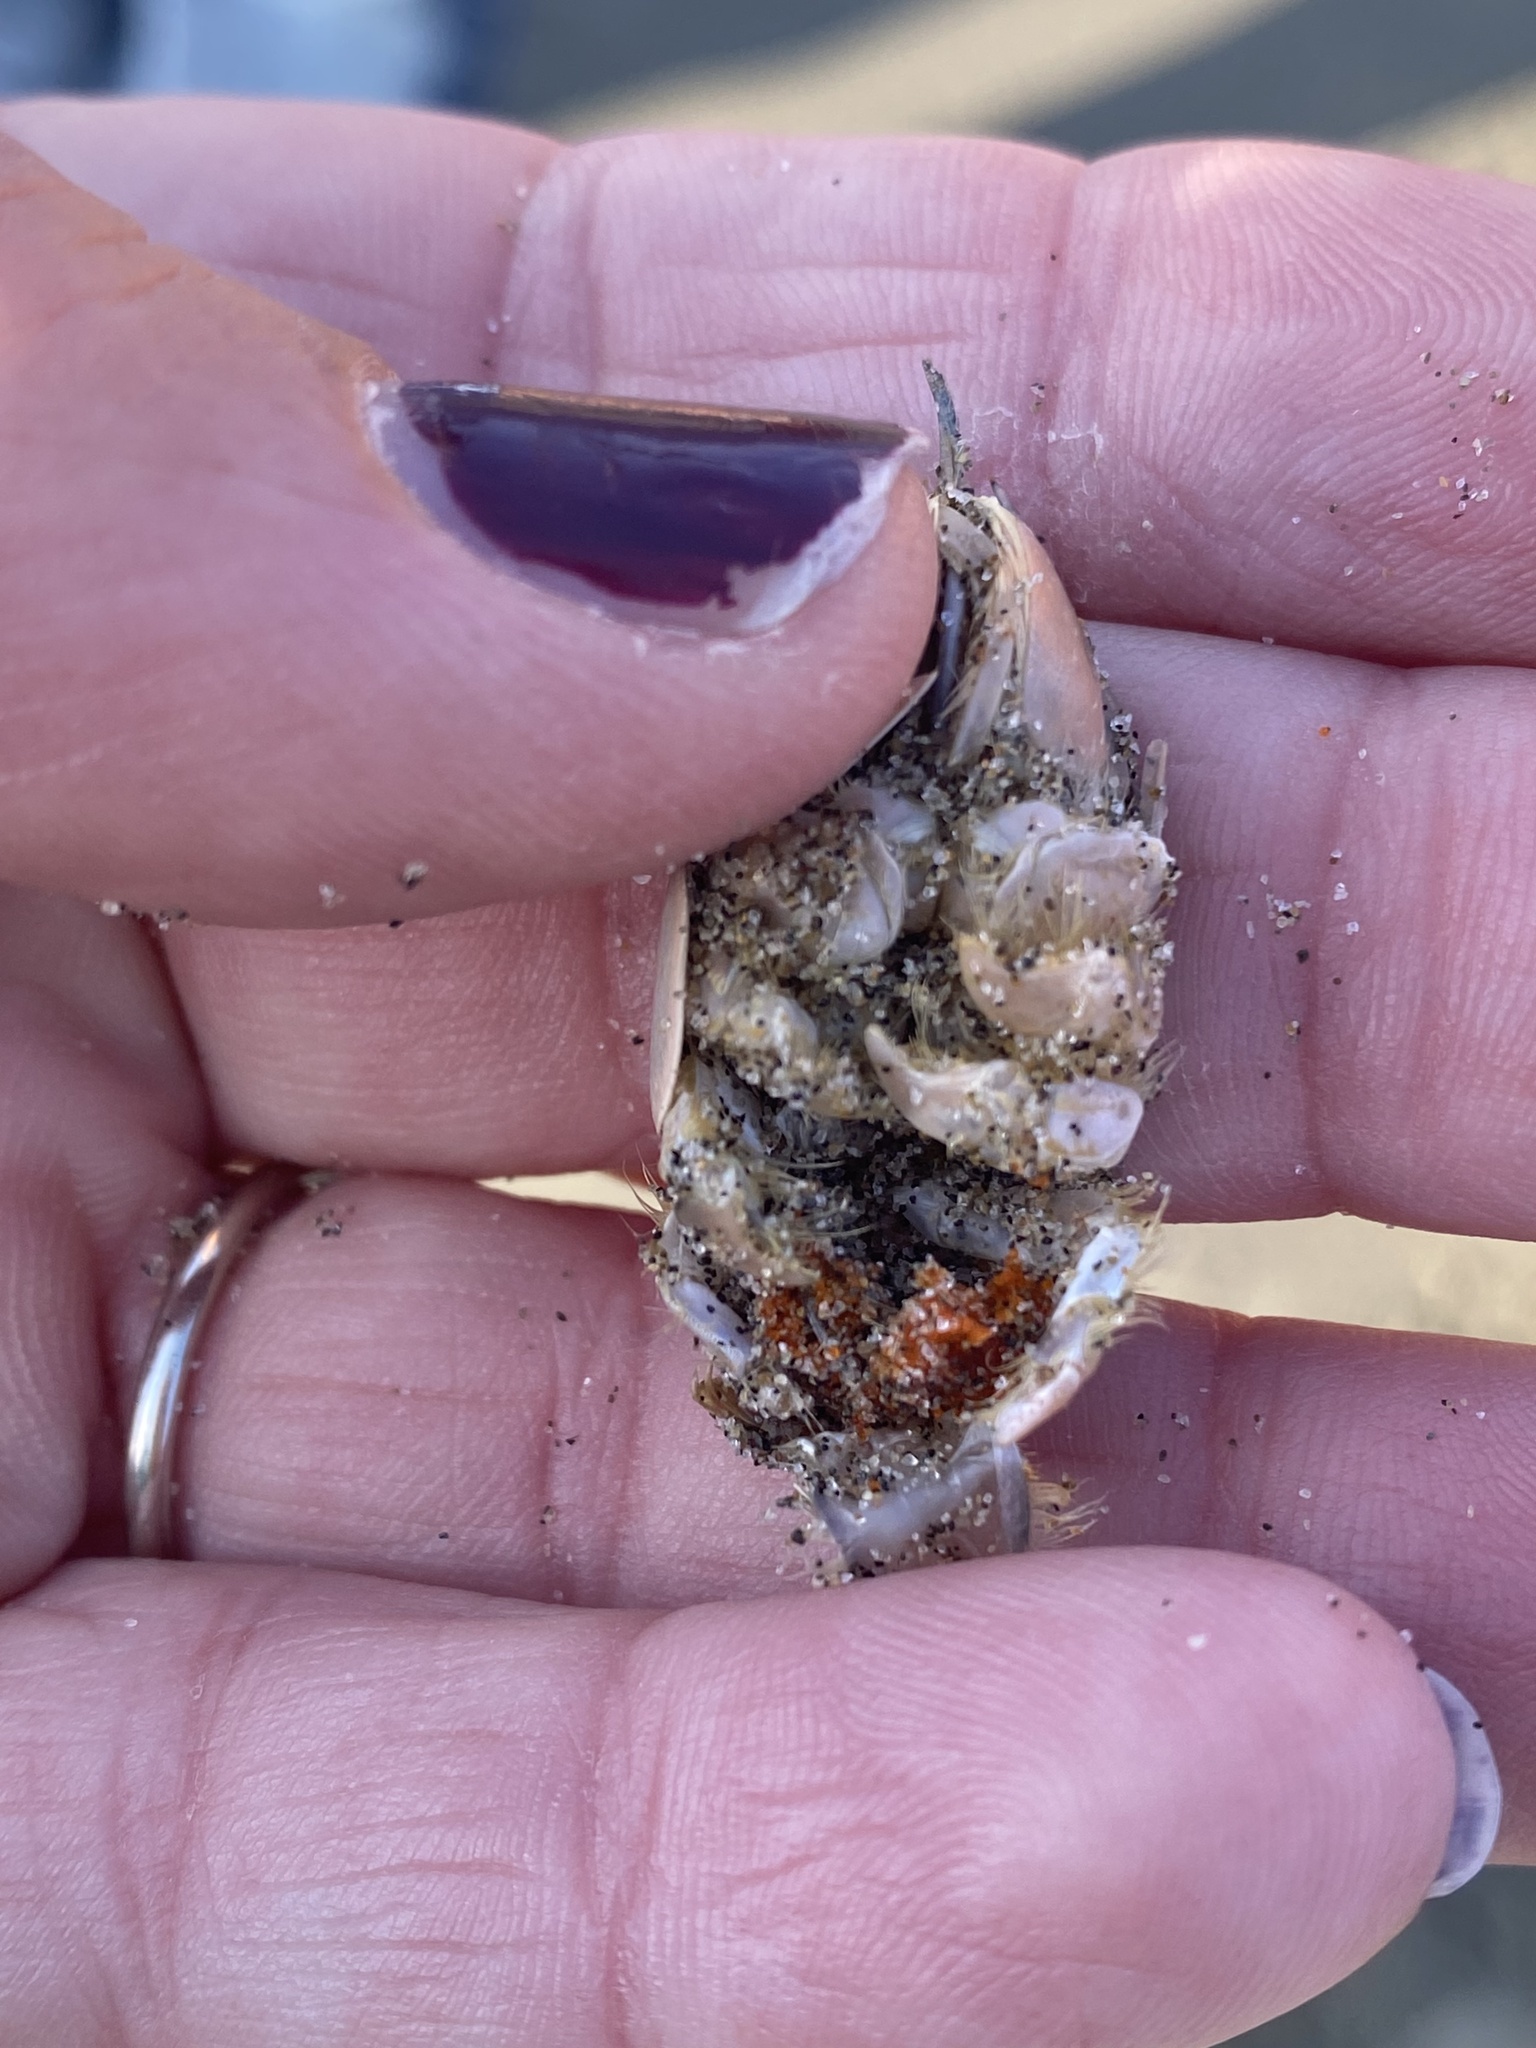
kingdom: Animalia
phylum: Arthropoda
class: Malacostraca
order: Decapoda
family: Hippidae
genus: Emerita
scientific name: Emerita analoga
